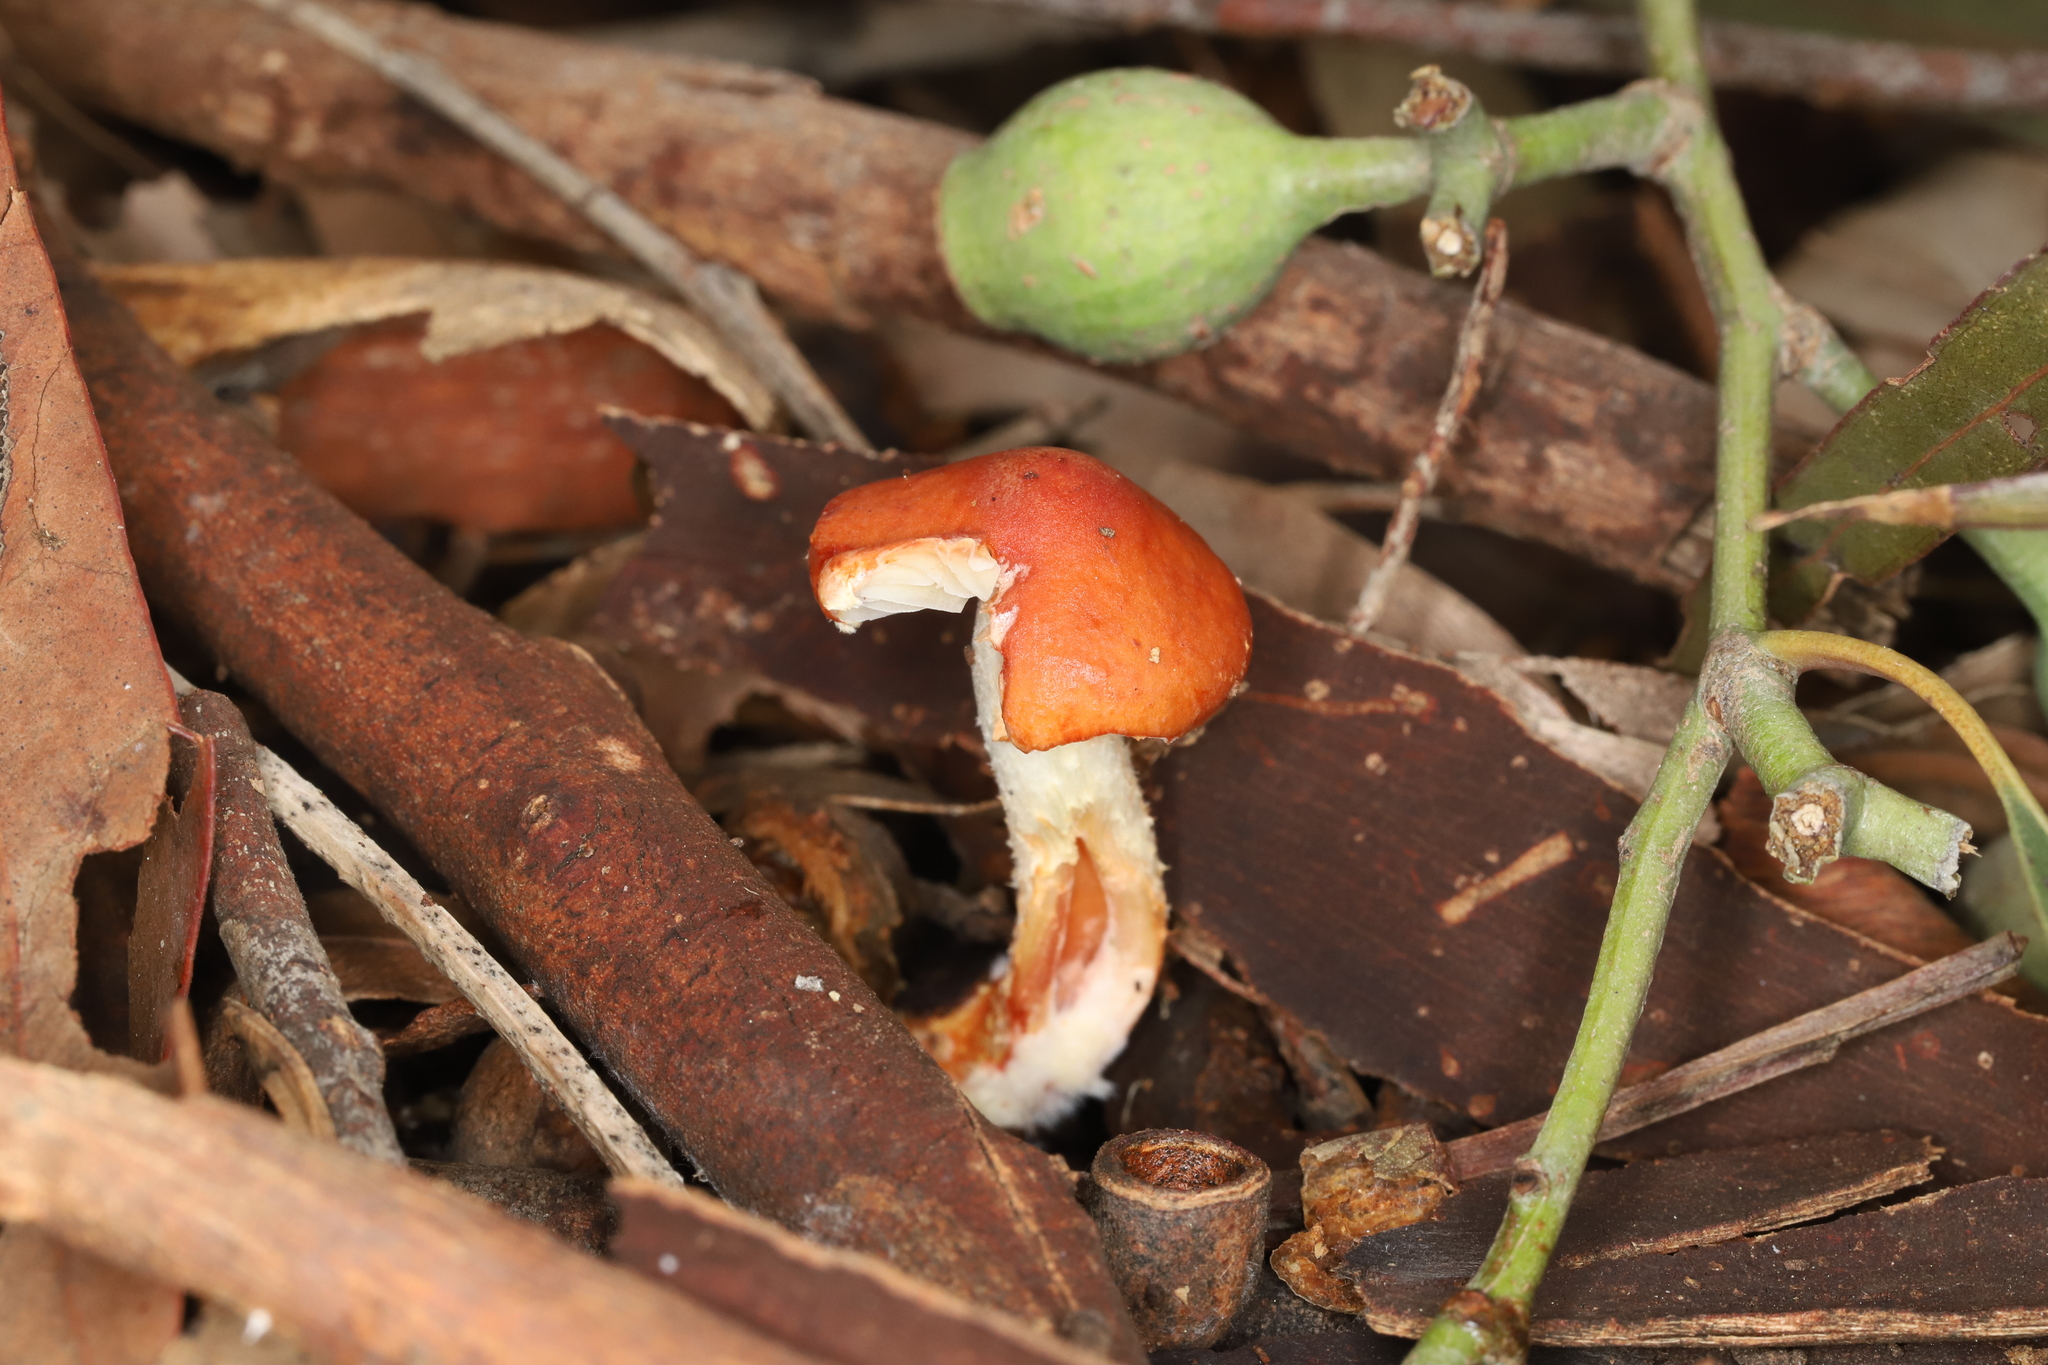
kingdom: Fungi
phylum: Basidiomycota
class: Agaricomycetes
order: Agaricales
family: Strophariaceae
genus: Leratiomyces
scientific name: Leratiomyces ceres
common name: Redlead roundhead
